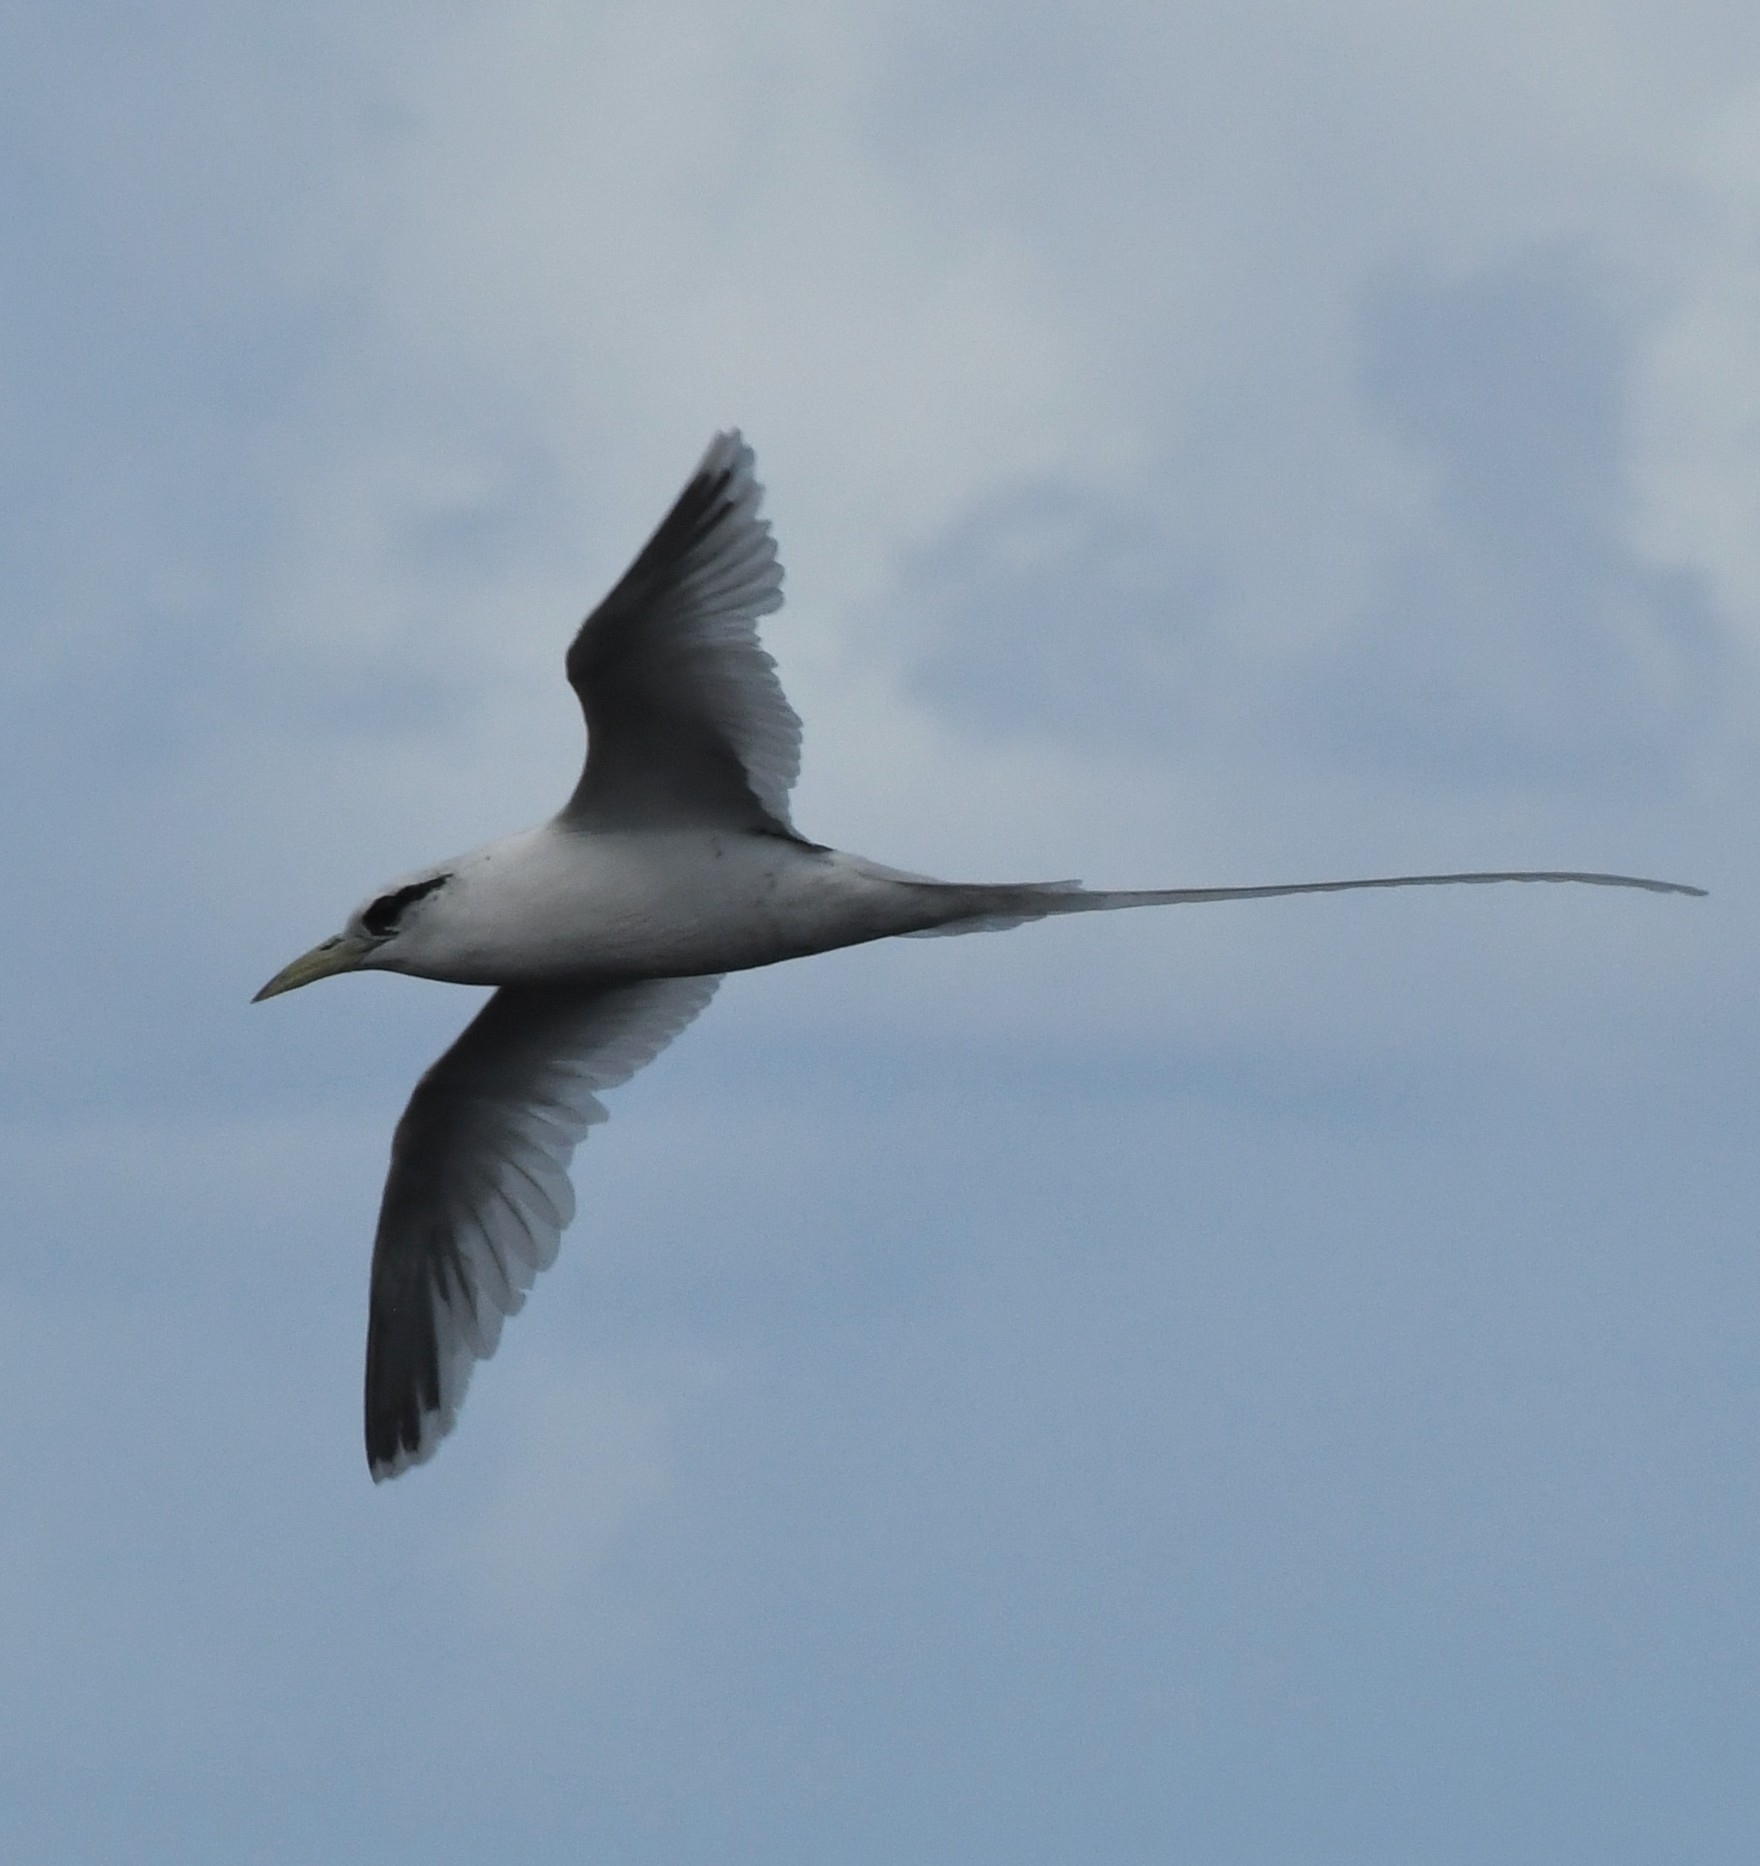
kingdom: Animalia
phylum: Chordata
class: Aves
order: Phaethontiformes
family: Phaethontidae
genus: Phaethon
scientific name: Phaethon lepturus
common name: White-tailed tropicbird
